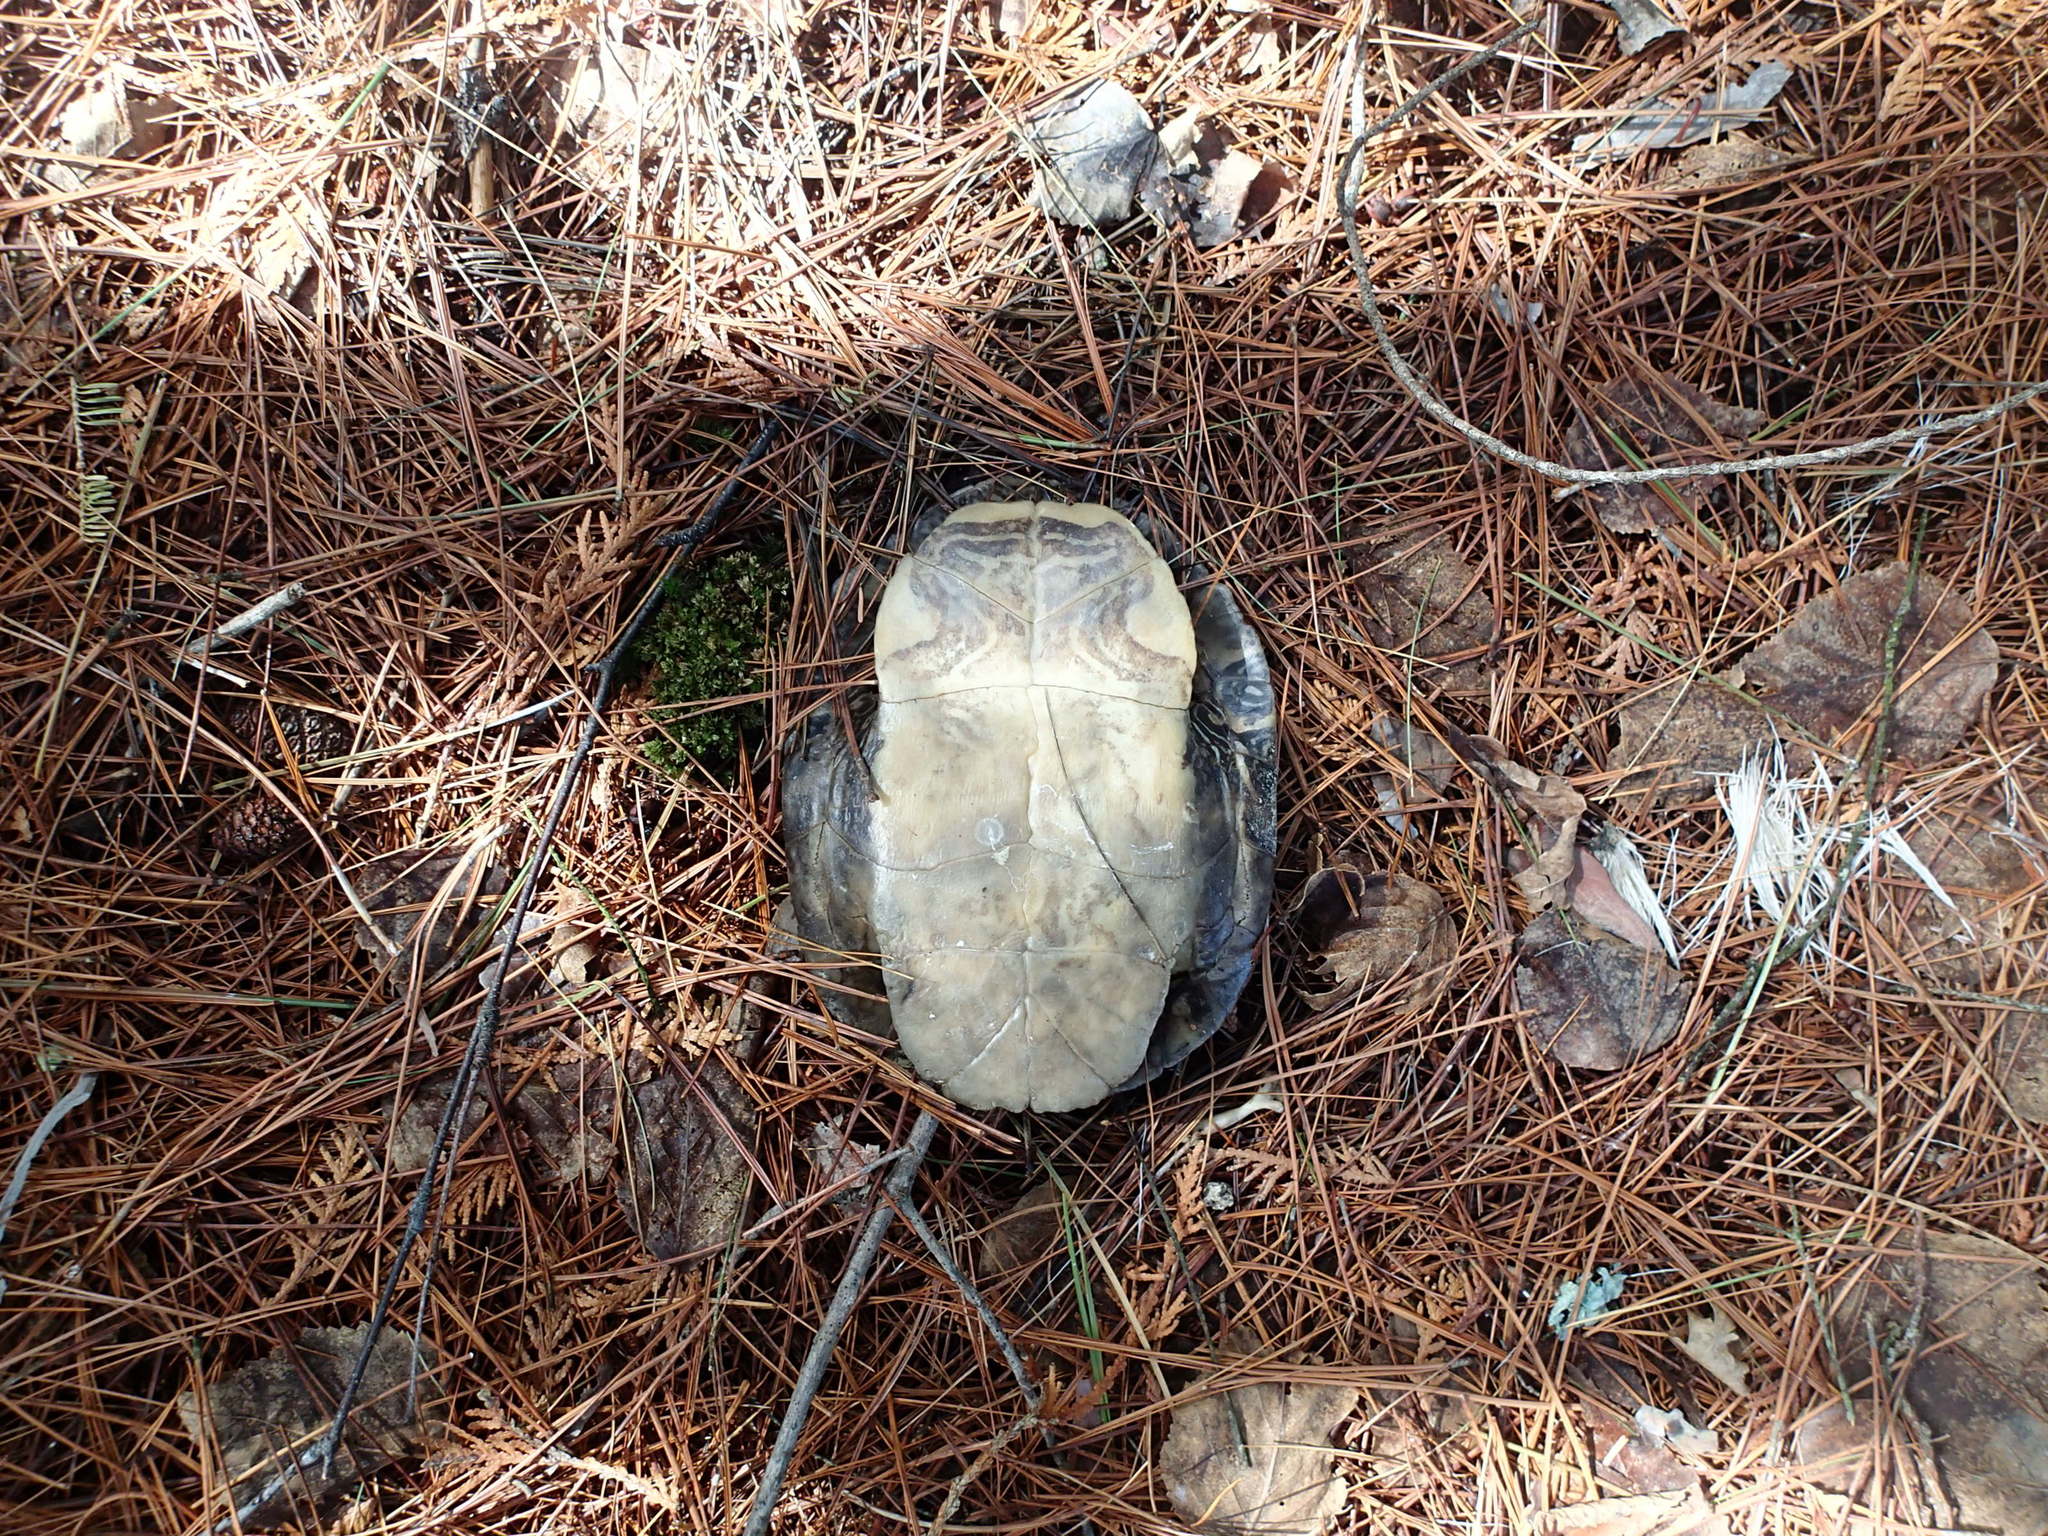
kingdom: Animalia
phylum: Chordata
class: Testudines
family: Emydidae
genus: Chrysemys
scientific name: Chrysemys picta
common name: Painted turtle
